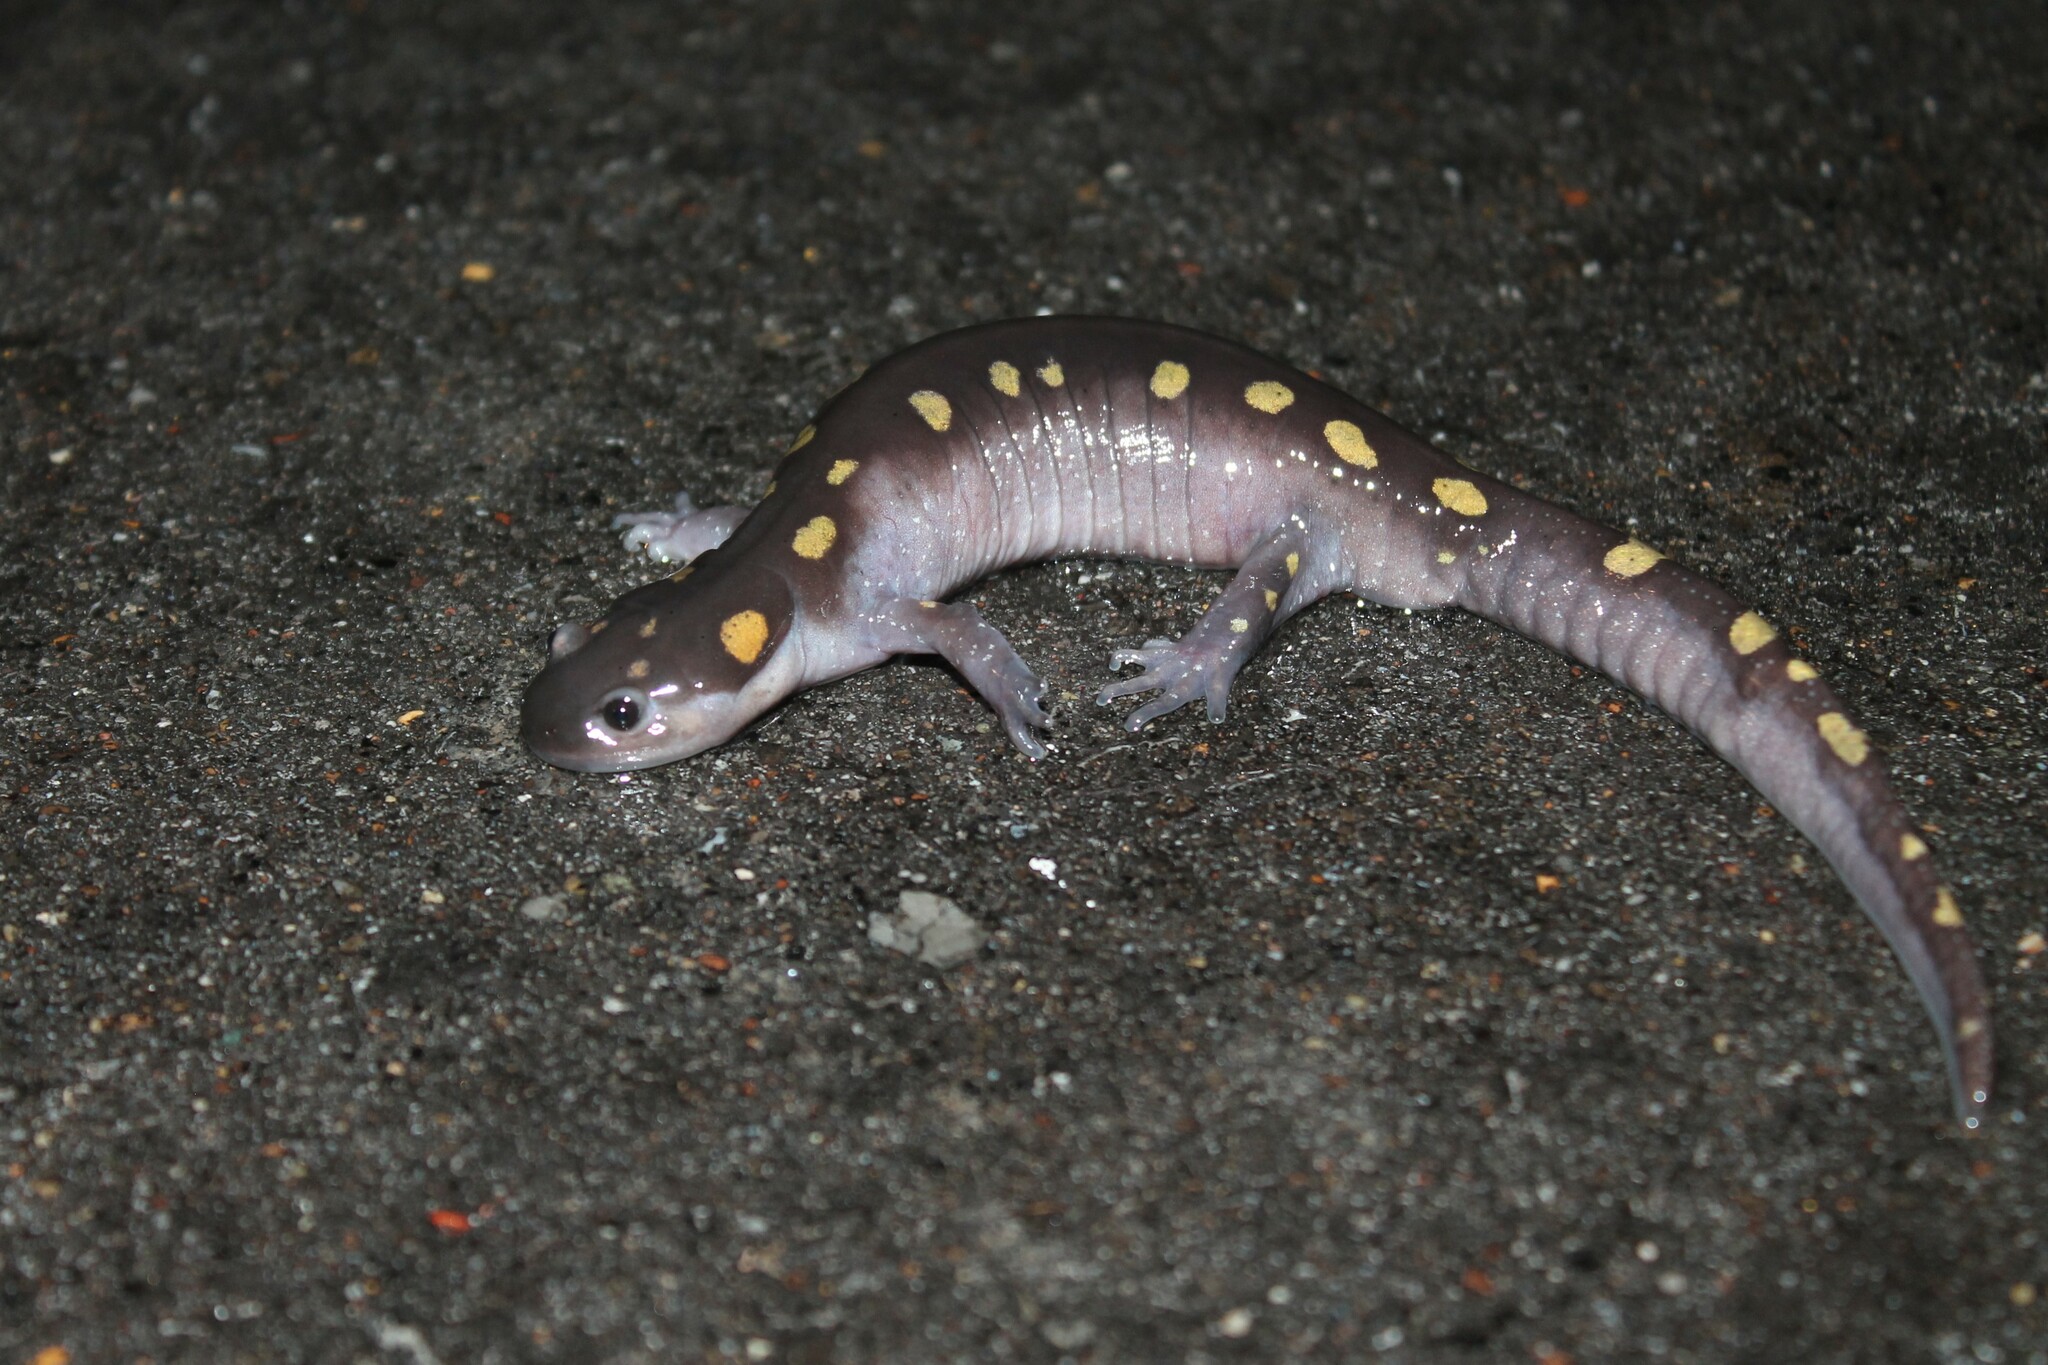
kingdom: Animalia
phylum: Chordata
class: Amphibia
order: Caudata
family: Ambystomatidae
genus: Ambystoma
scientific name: Ambystoma maculatum
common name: Spotted salamander
